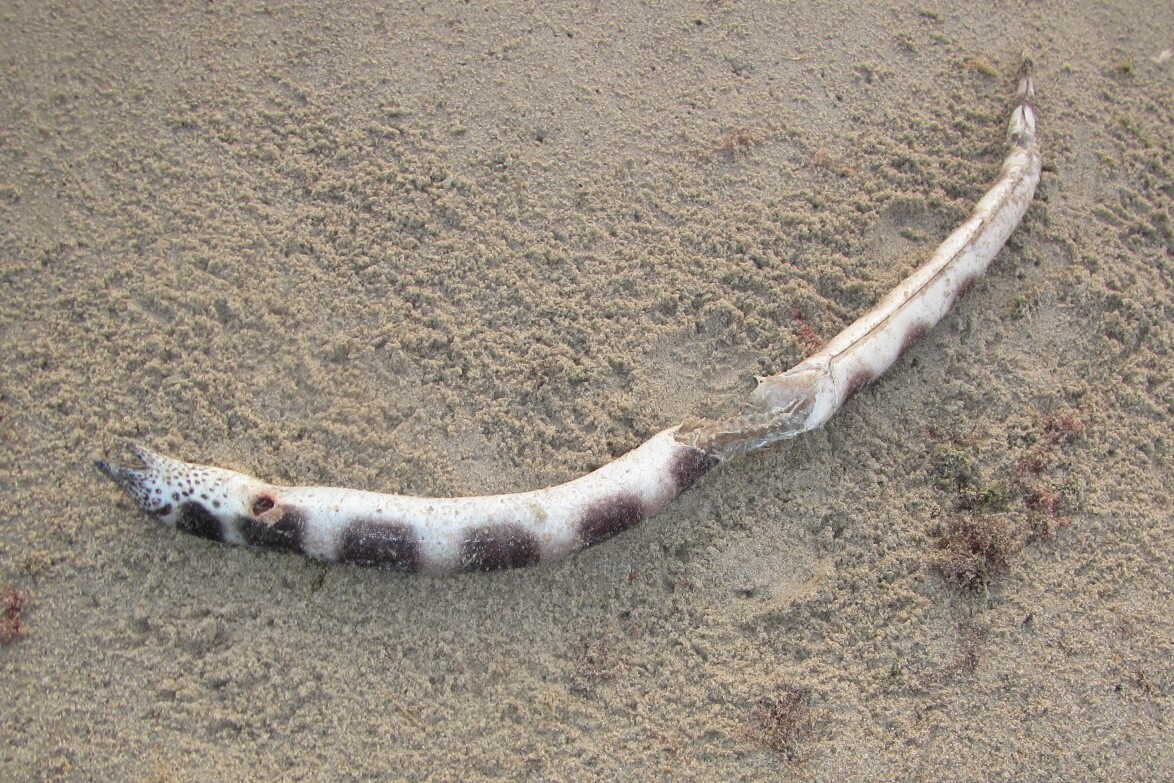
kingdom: Animalia
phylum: Chordata
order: Anguilliformes
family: Ophichthidae
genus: Pisodonophis
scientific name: Pisodonophis semicinctus
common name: Saddled snake eel
